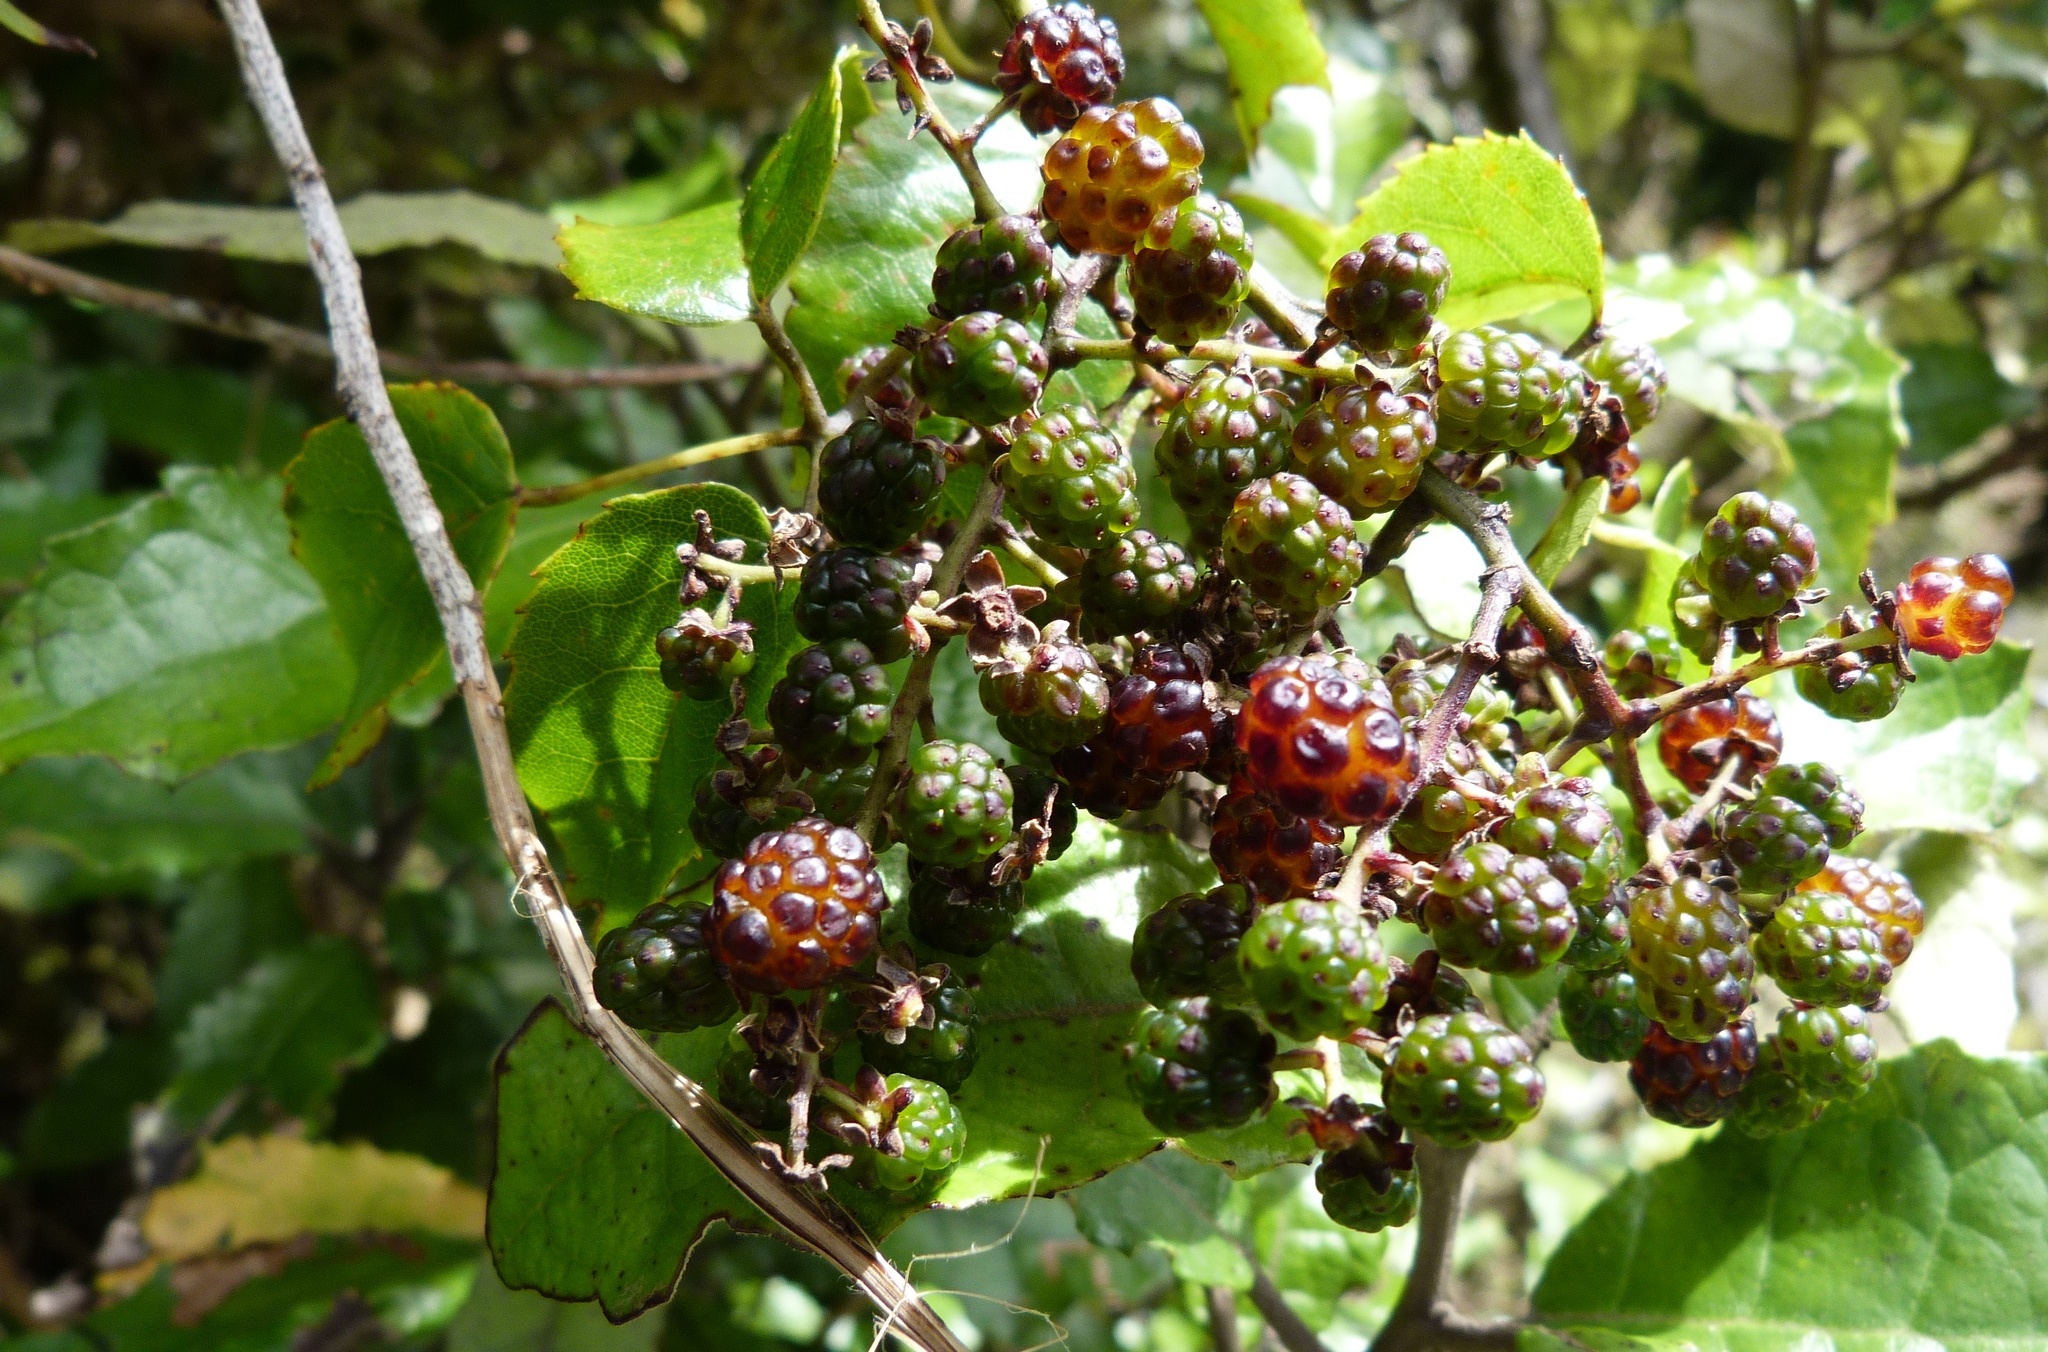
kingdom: Plantae
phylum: Tracheophyta
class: Magnoliopsida
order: Rosales
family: Rosaceae
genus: Rubus
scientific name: Rubus cissoides
